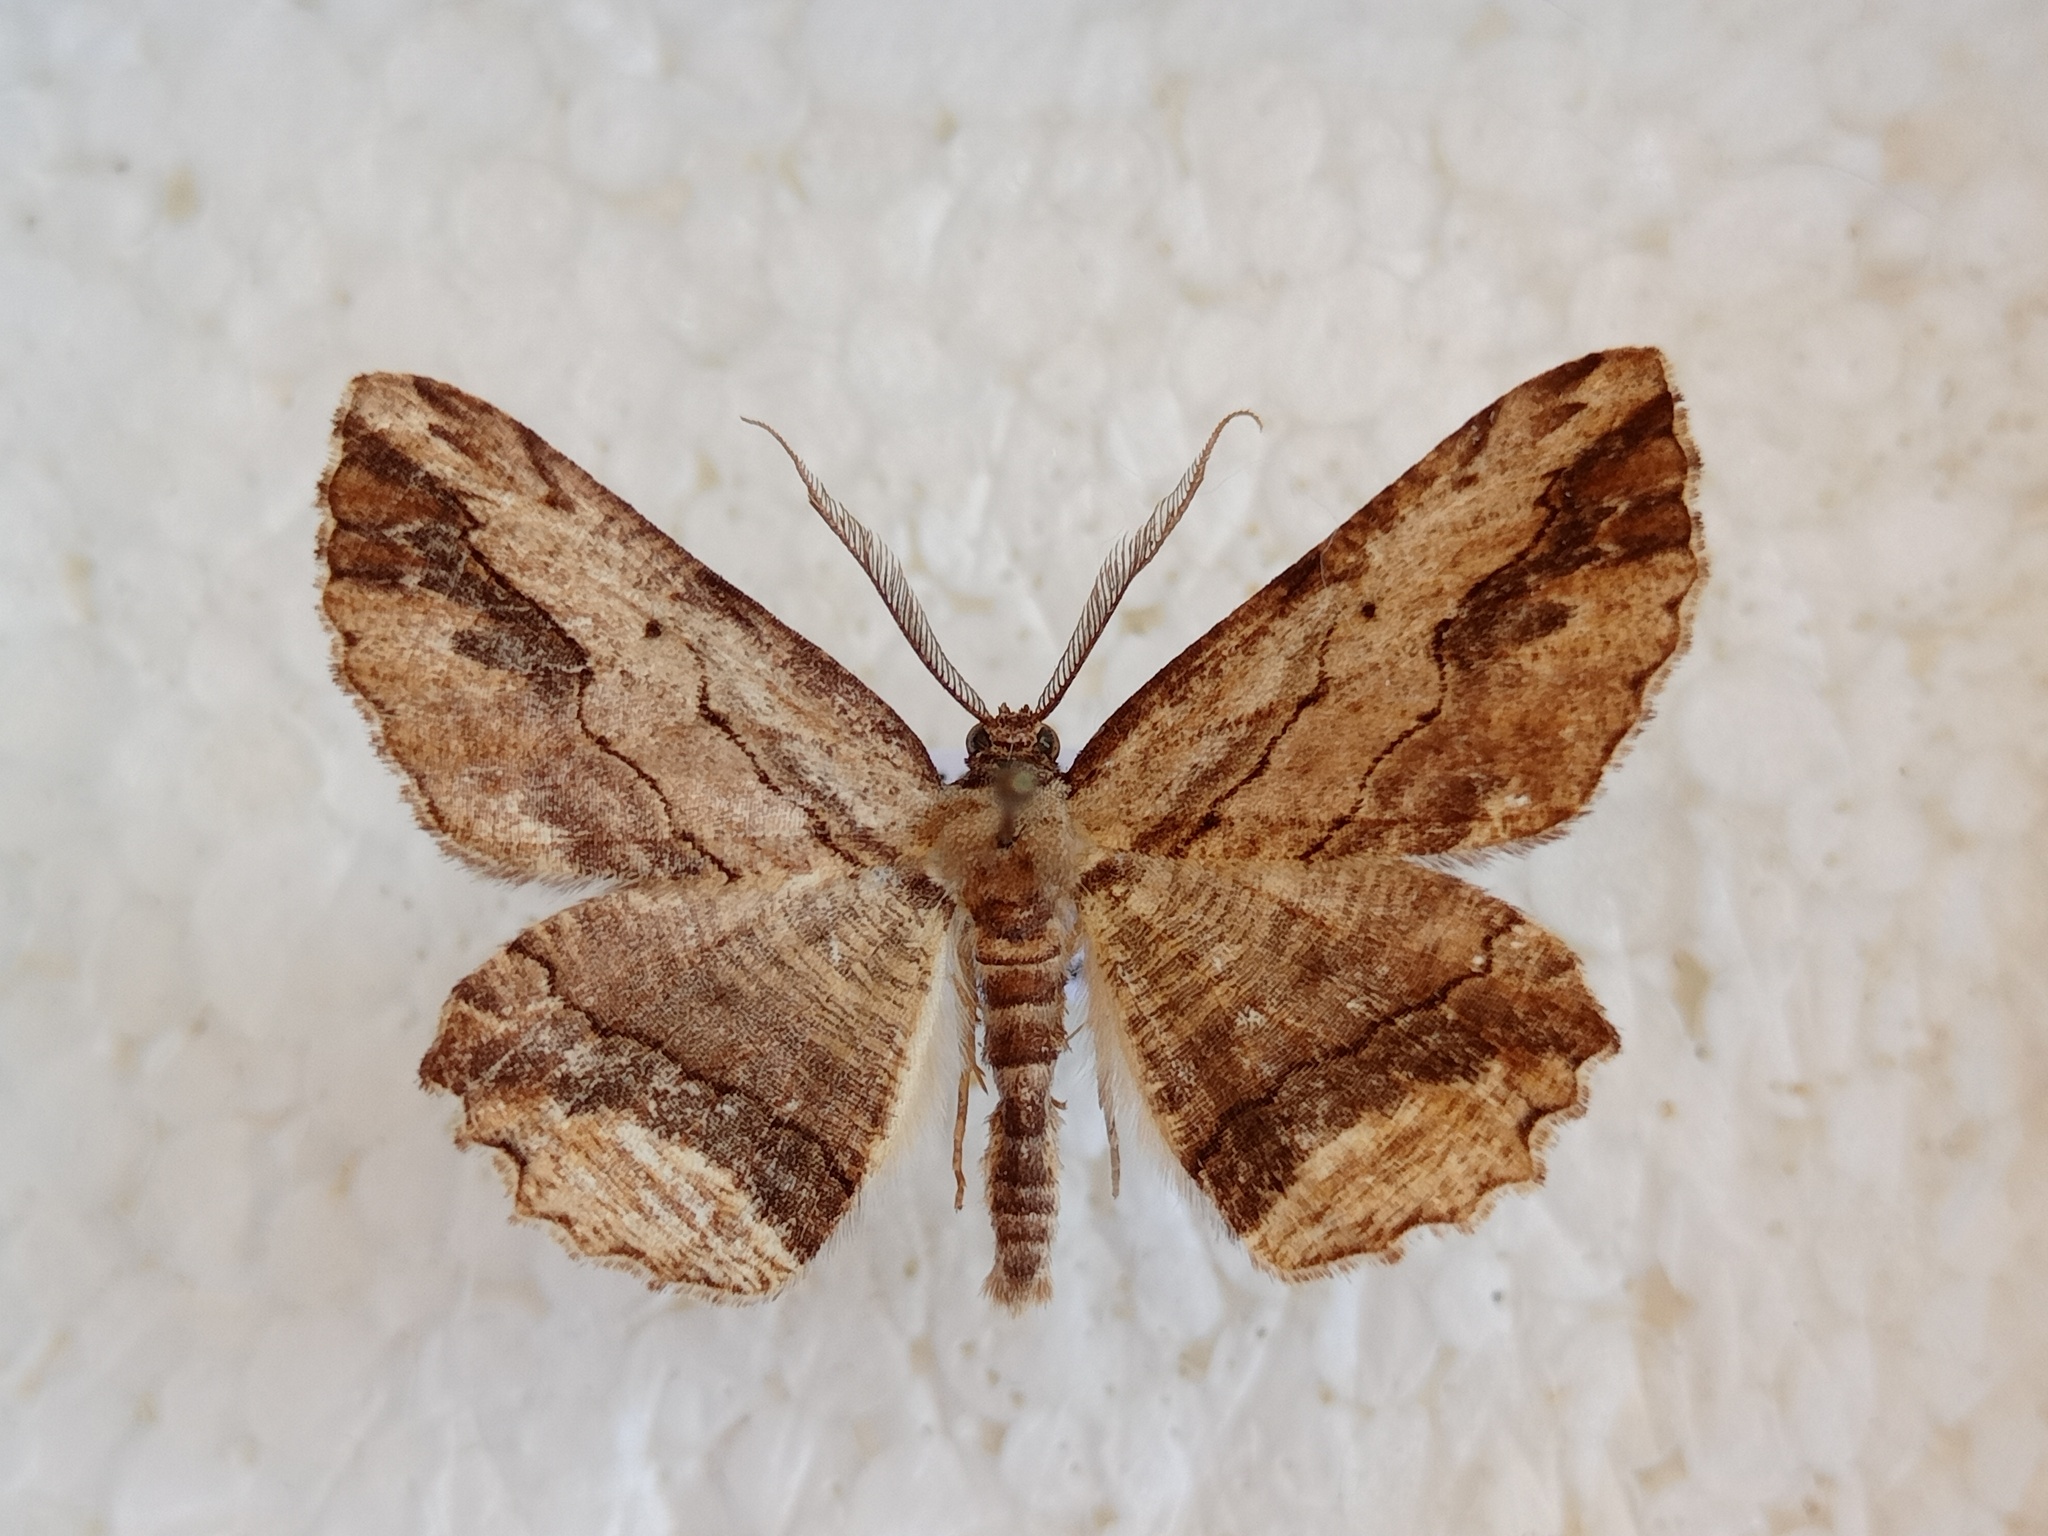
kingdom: Animalia
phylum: Arthropoda
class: Insecta
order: Lepidoptera
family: Geometridae
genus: Menophra
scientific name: Menophra abruptaria
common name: Waved umber
